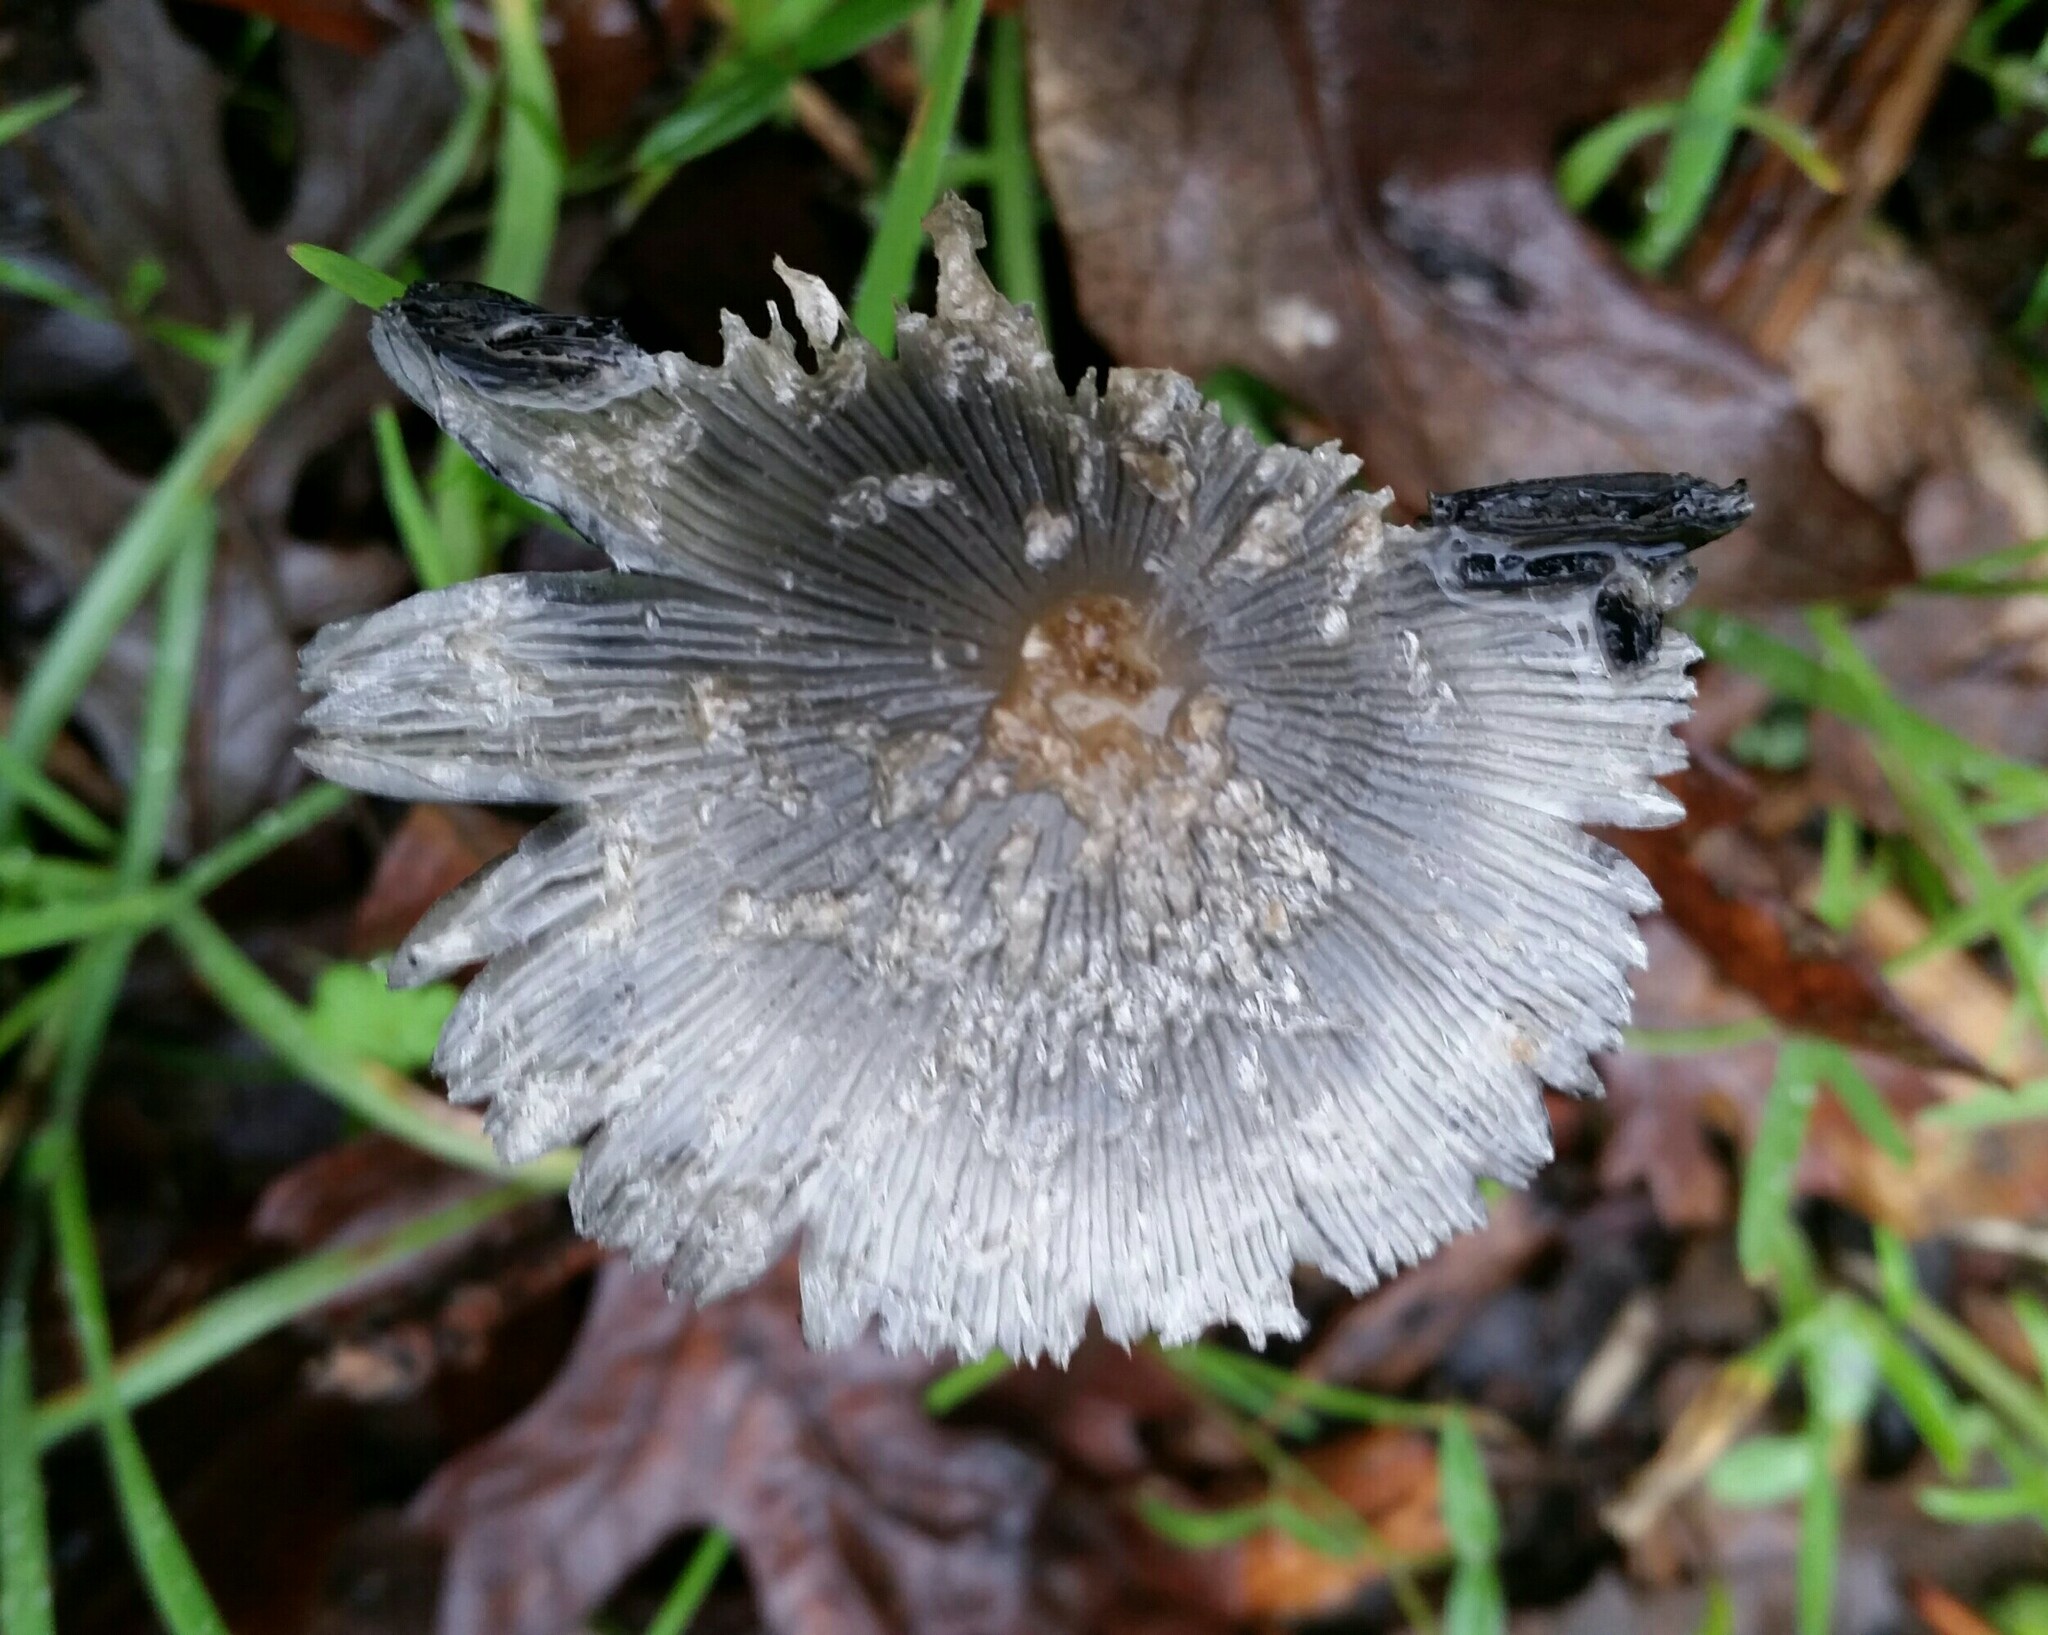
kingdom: Fungi
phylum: Basidiomycota
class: Agaricomycetes
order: Agaricales
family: Psathyrellaceae
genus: Coprinopsis
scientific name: Coprinopsis lagopus
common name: Hare'sfoot inkcap
